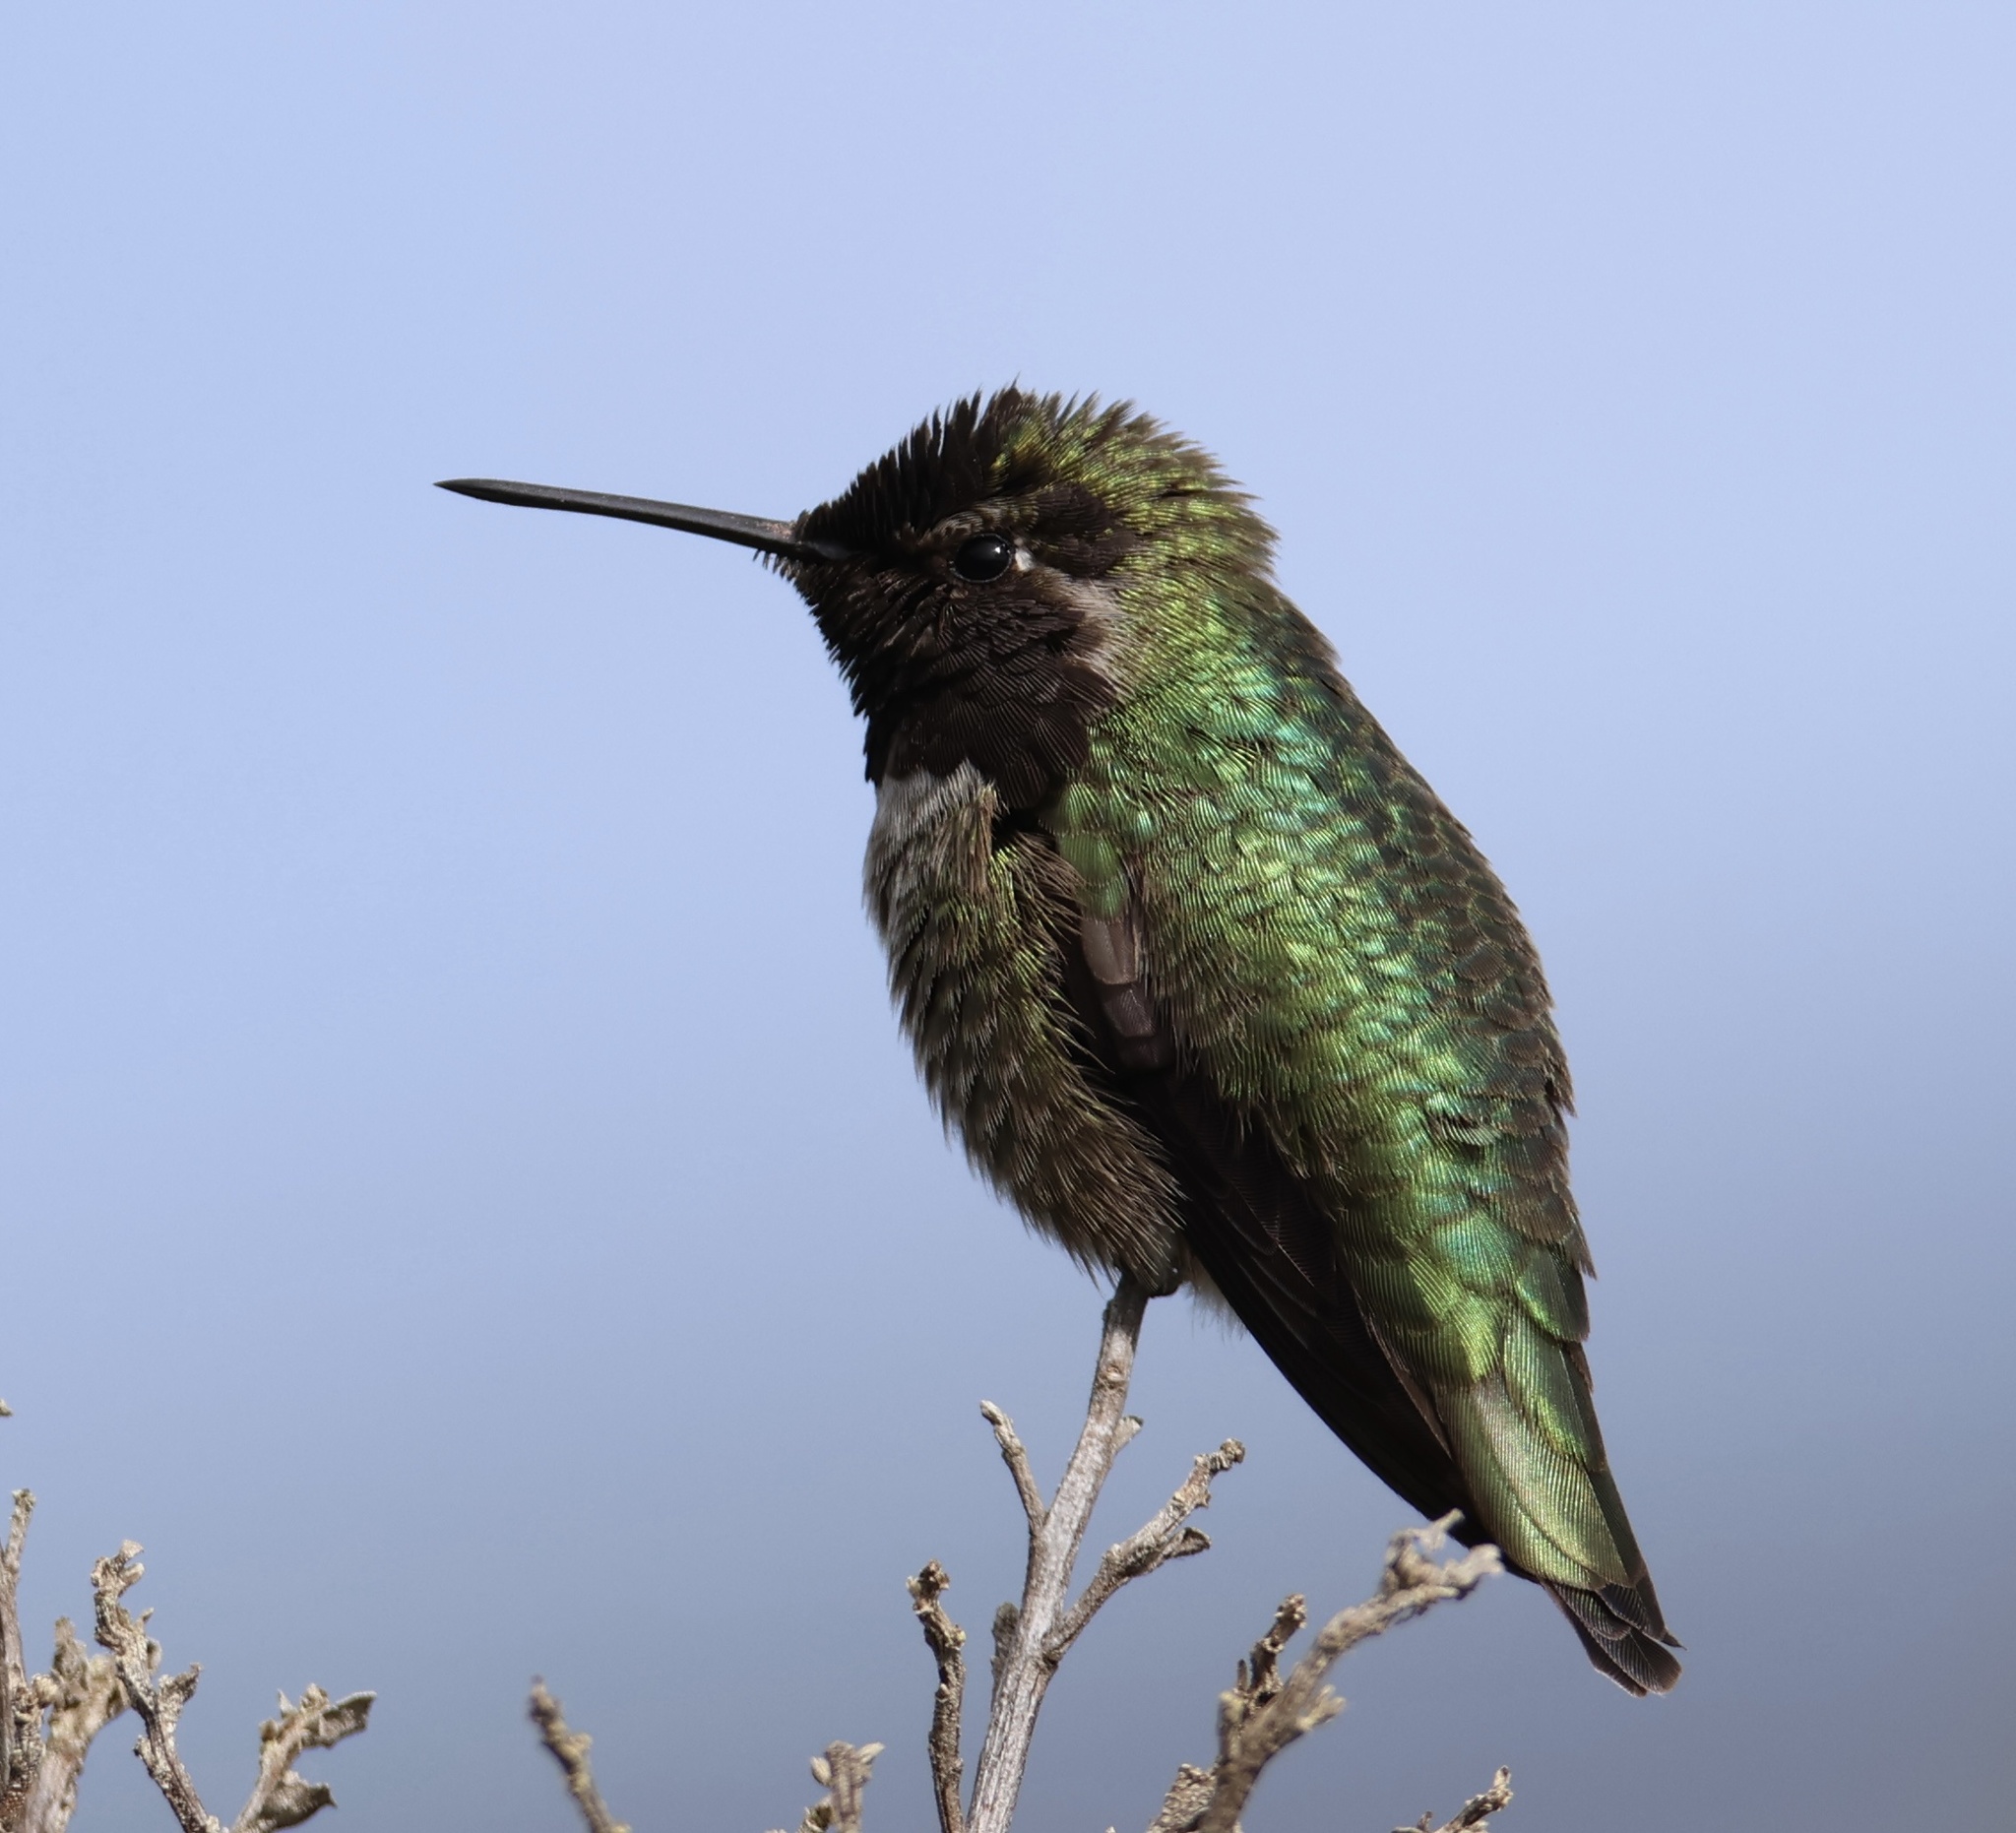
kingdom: Animalia
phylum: Chordata
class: Aves
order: Apodiformes
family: Trochilidae
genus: Calypte
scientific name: Calypte anna
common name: Anna's hummingbird
